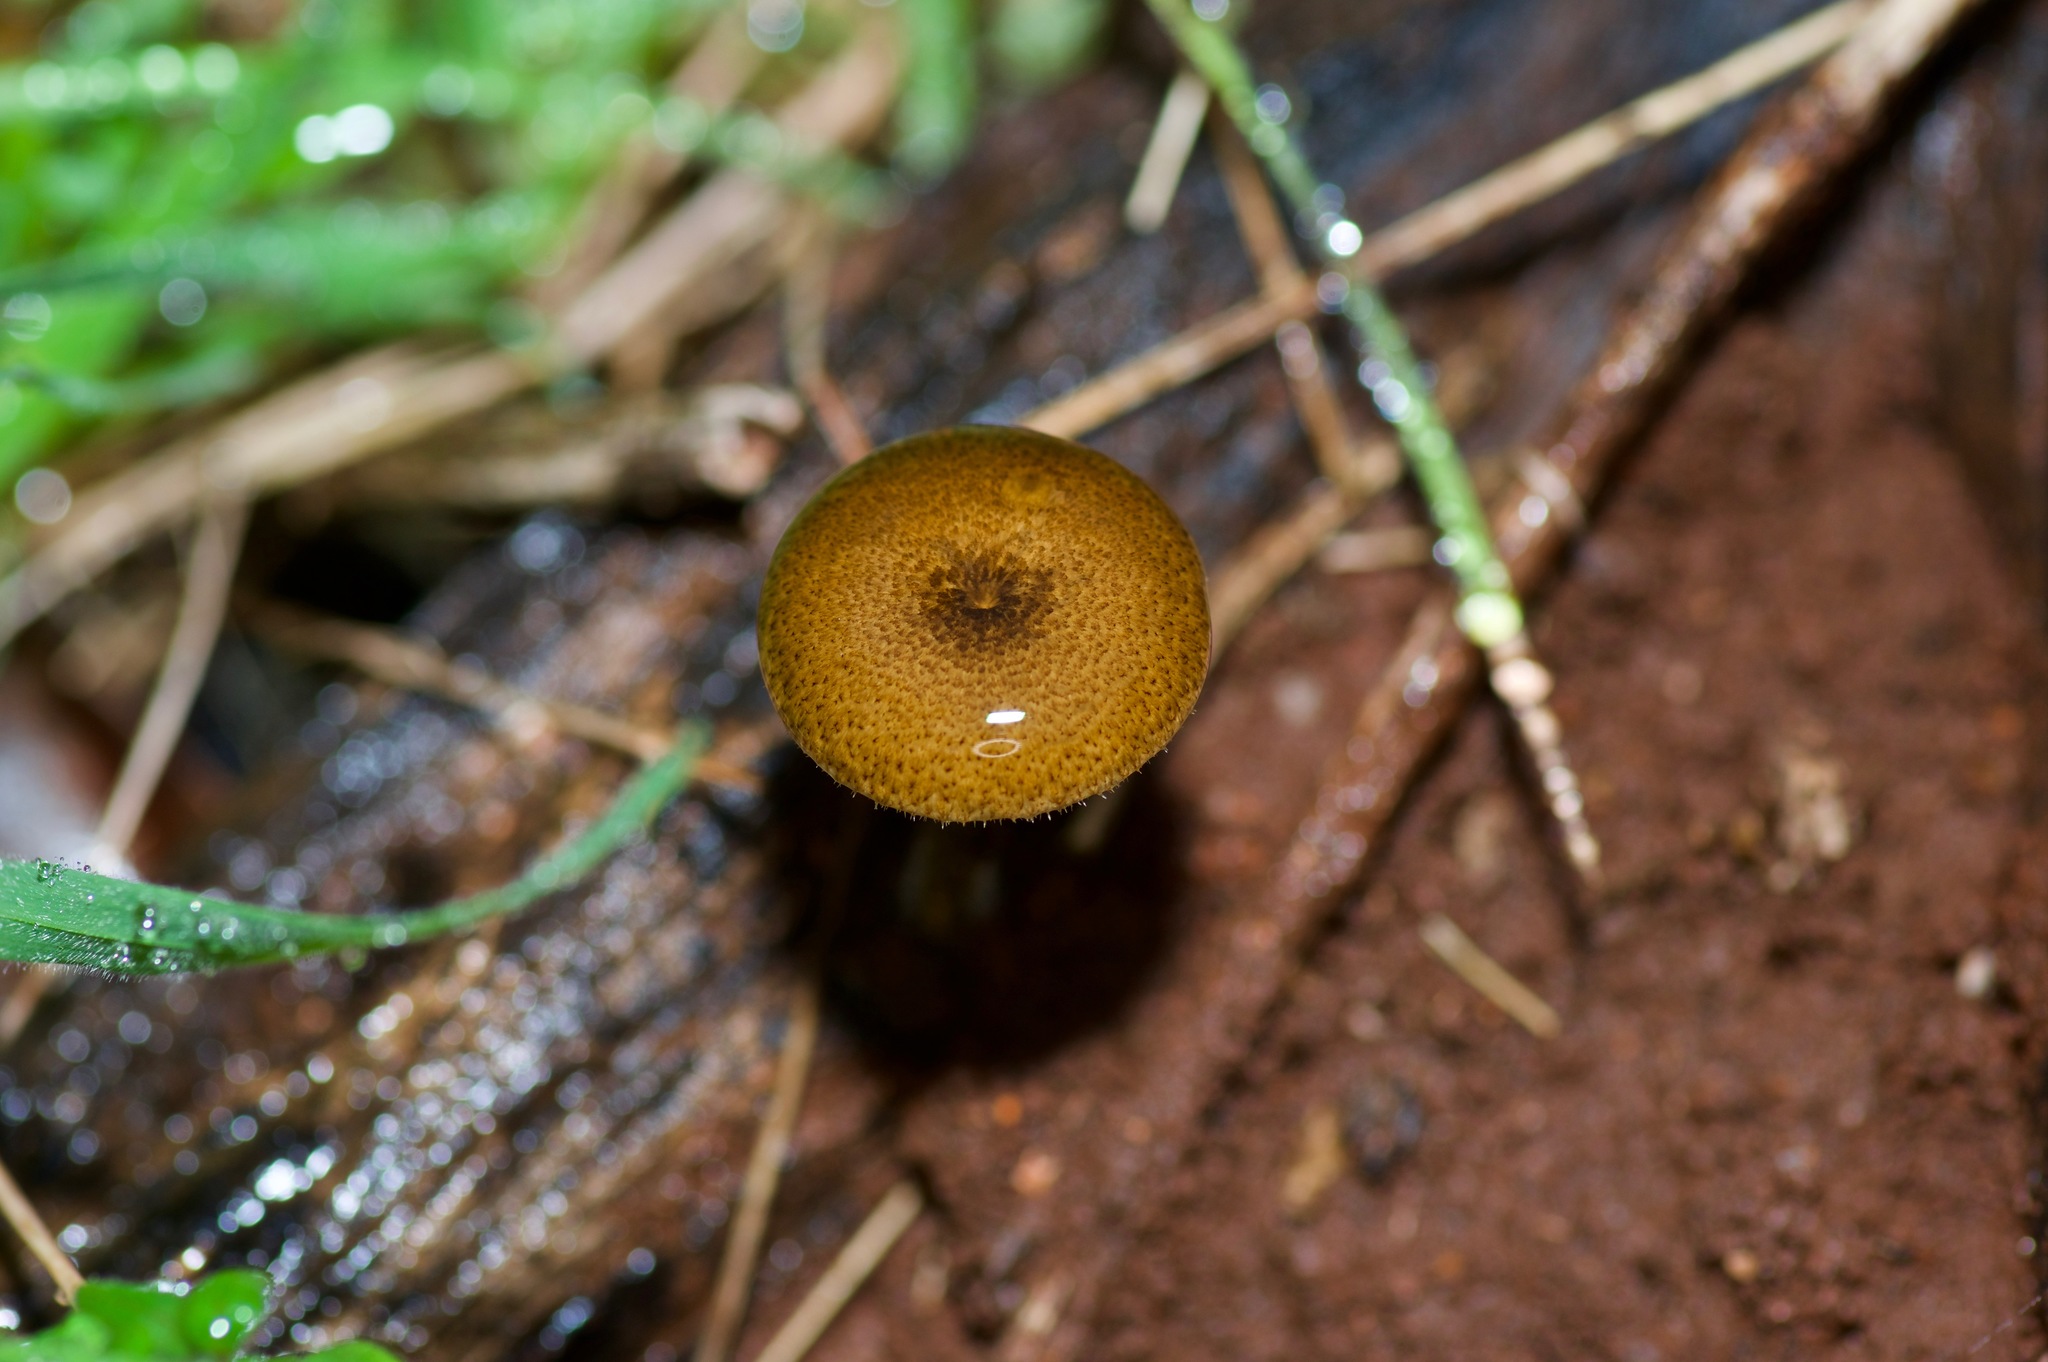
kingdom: Fungi
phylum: Basidiomycota
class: Agaricomycetes
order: Polyporales
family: Polyporaceae
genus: Lentinus
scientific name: Lentinus arcularius
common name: Spring polypore
